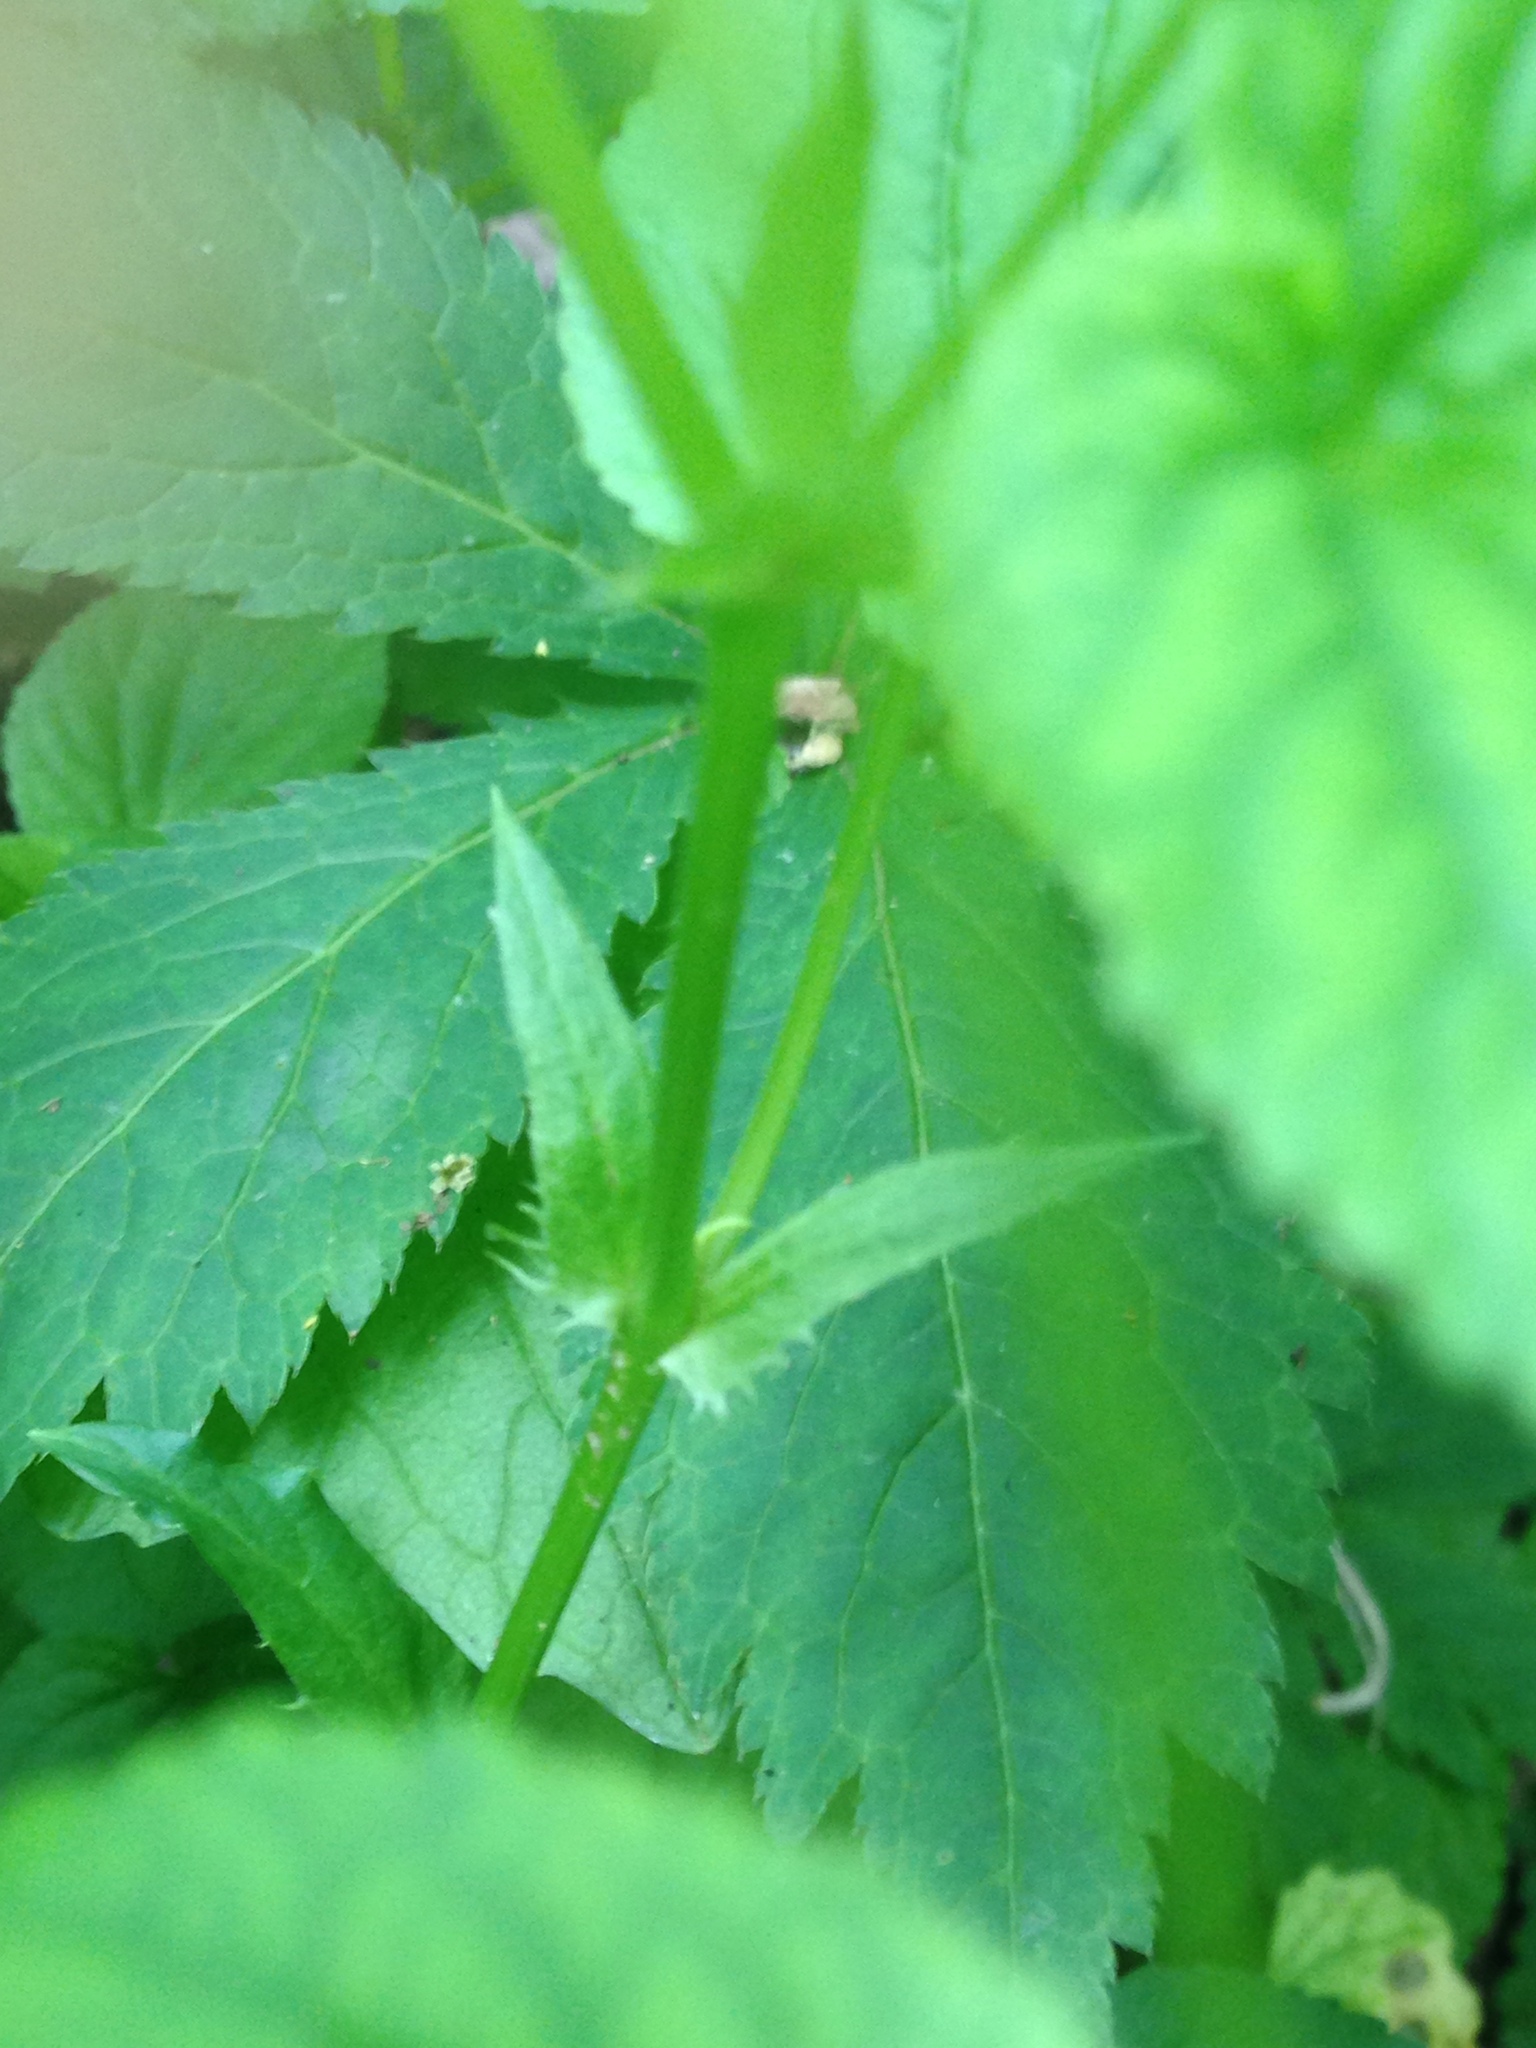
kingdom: Plantae
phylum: Tracheophyta
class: Magnoliopsida
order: Malpighiales
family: Violaceae
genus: Viola
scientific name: Viola striata
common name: Cream violet
